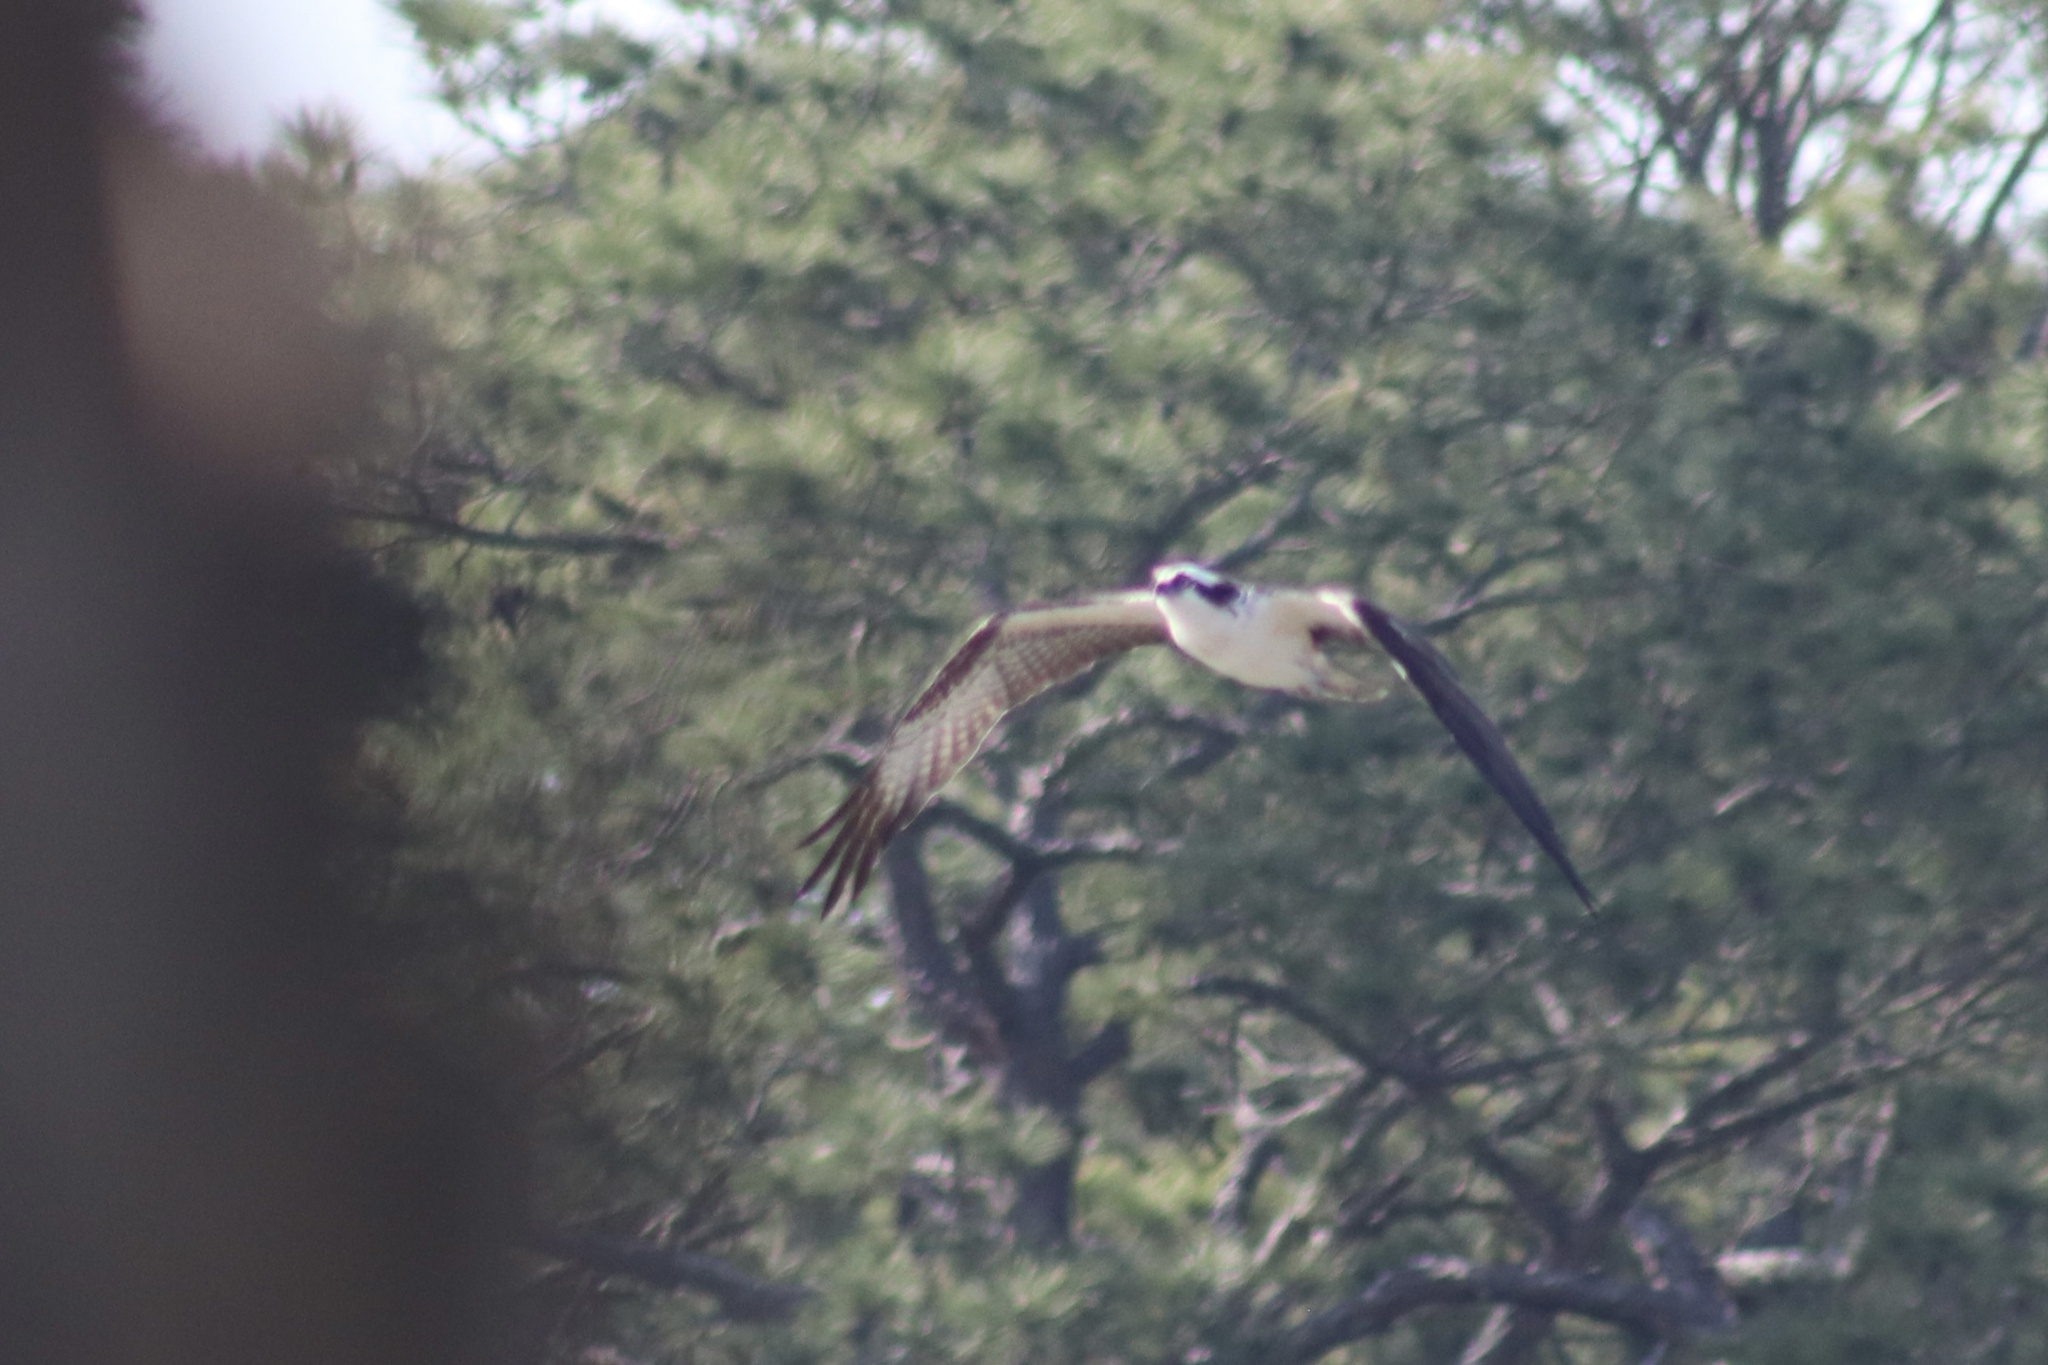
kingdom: Animalia
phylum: Chordata
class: Aves
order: Accipitriformes
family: Pandionidae
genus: Pandion
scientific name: Pandion haliaetus
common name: Osprey
